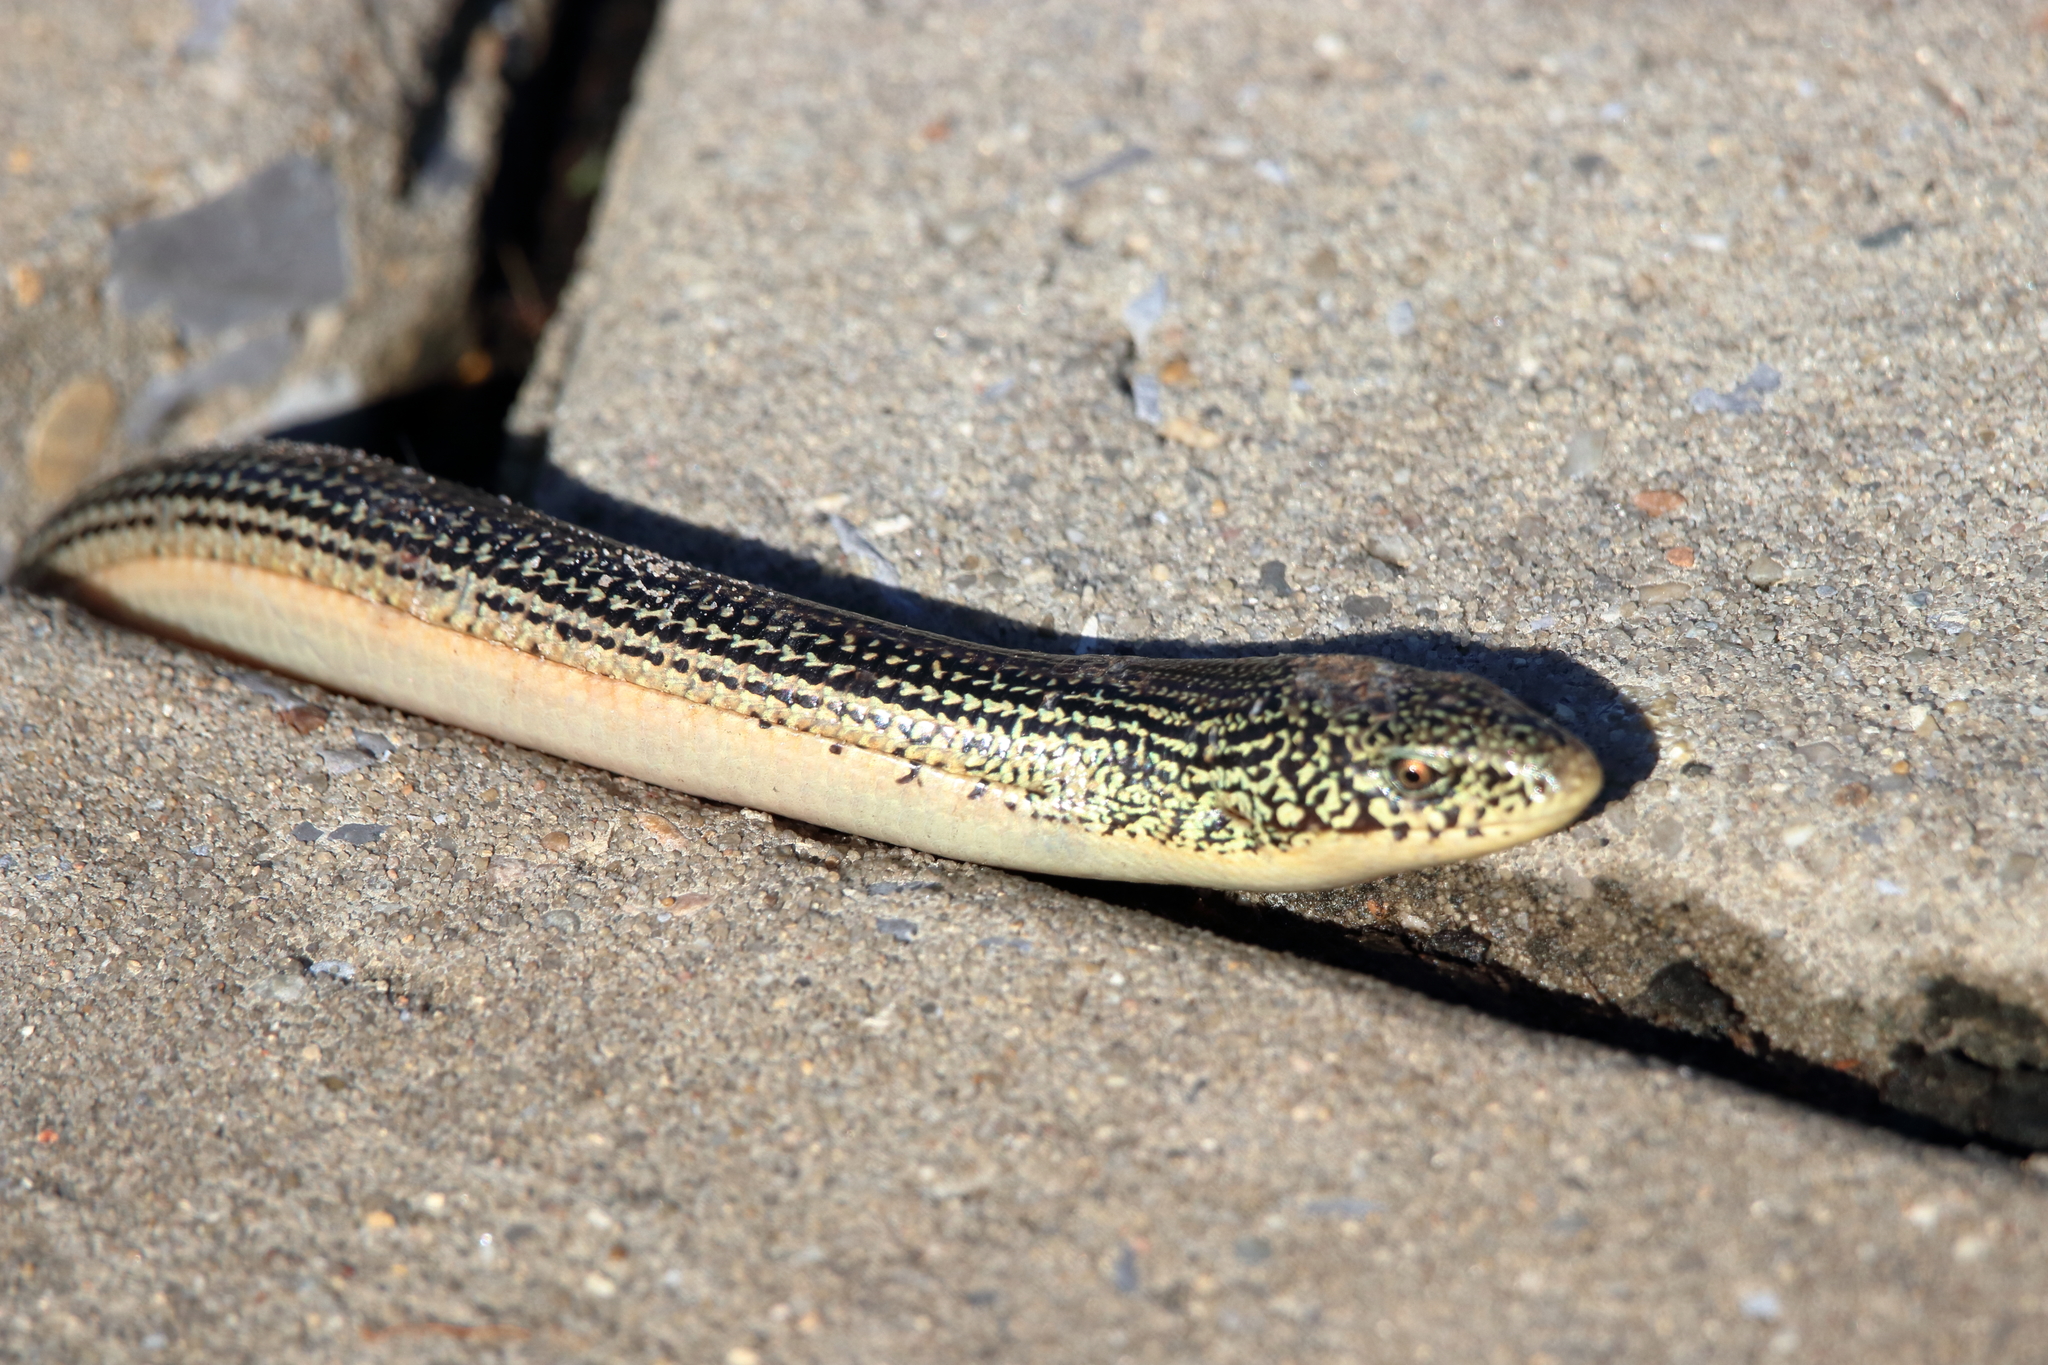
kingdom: Animalia
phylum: Chordata
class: Squamata
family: Anguidae
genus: Ophisaurus
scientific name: Ophisaurus ventralis
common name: Eastern glass lizard
